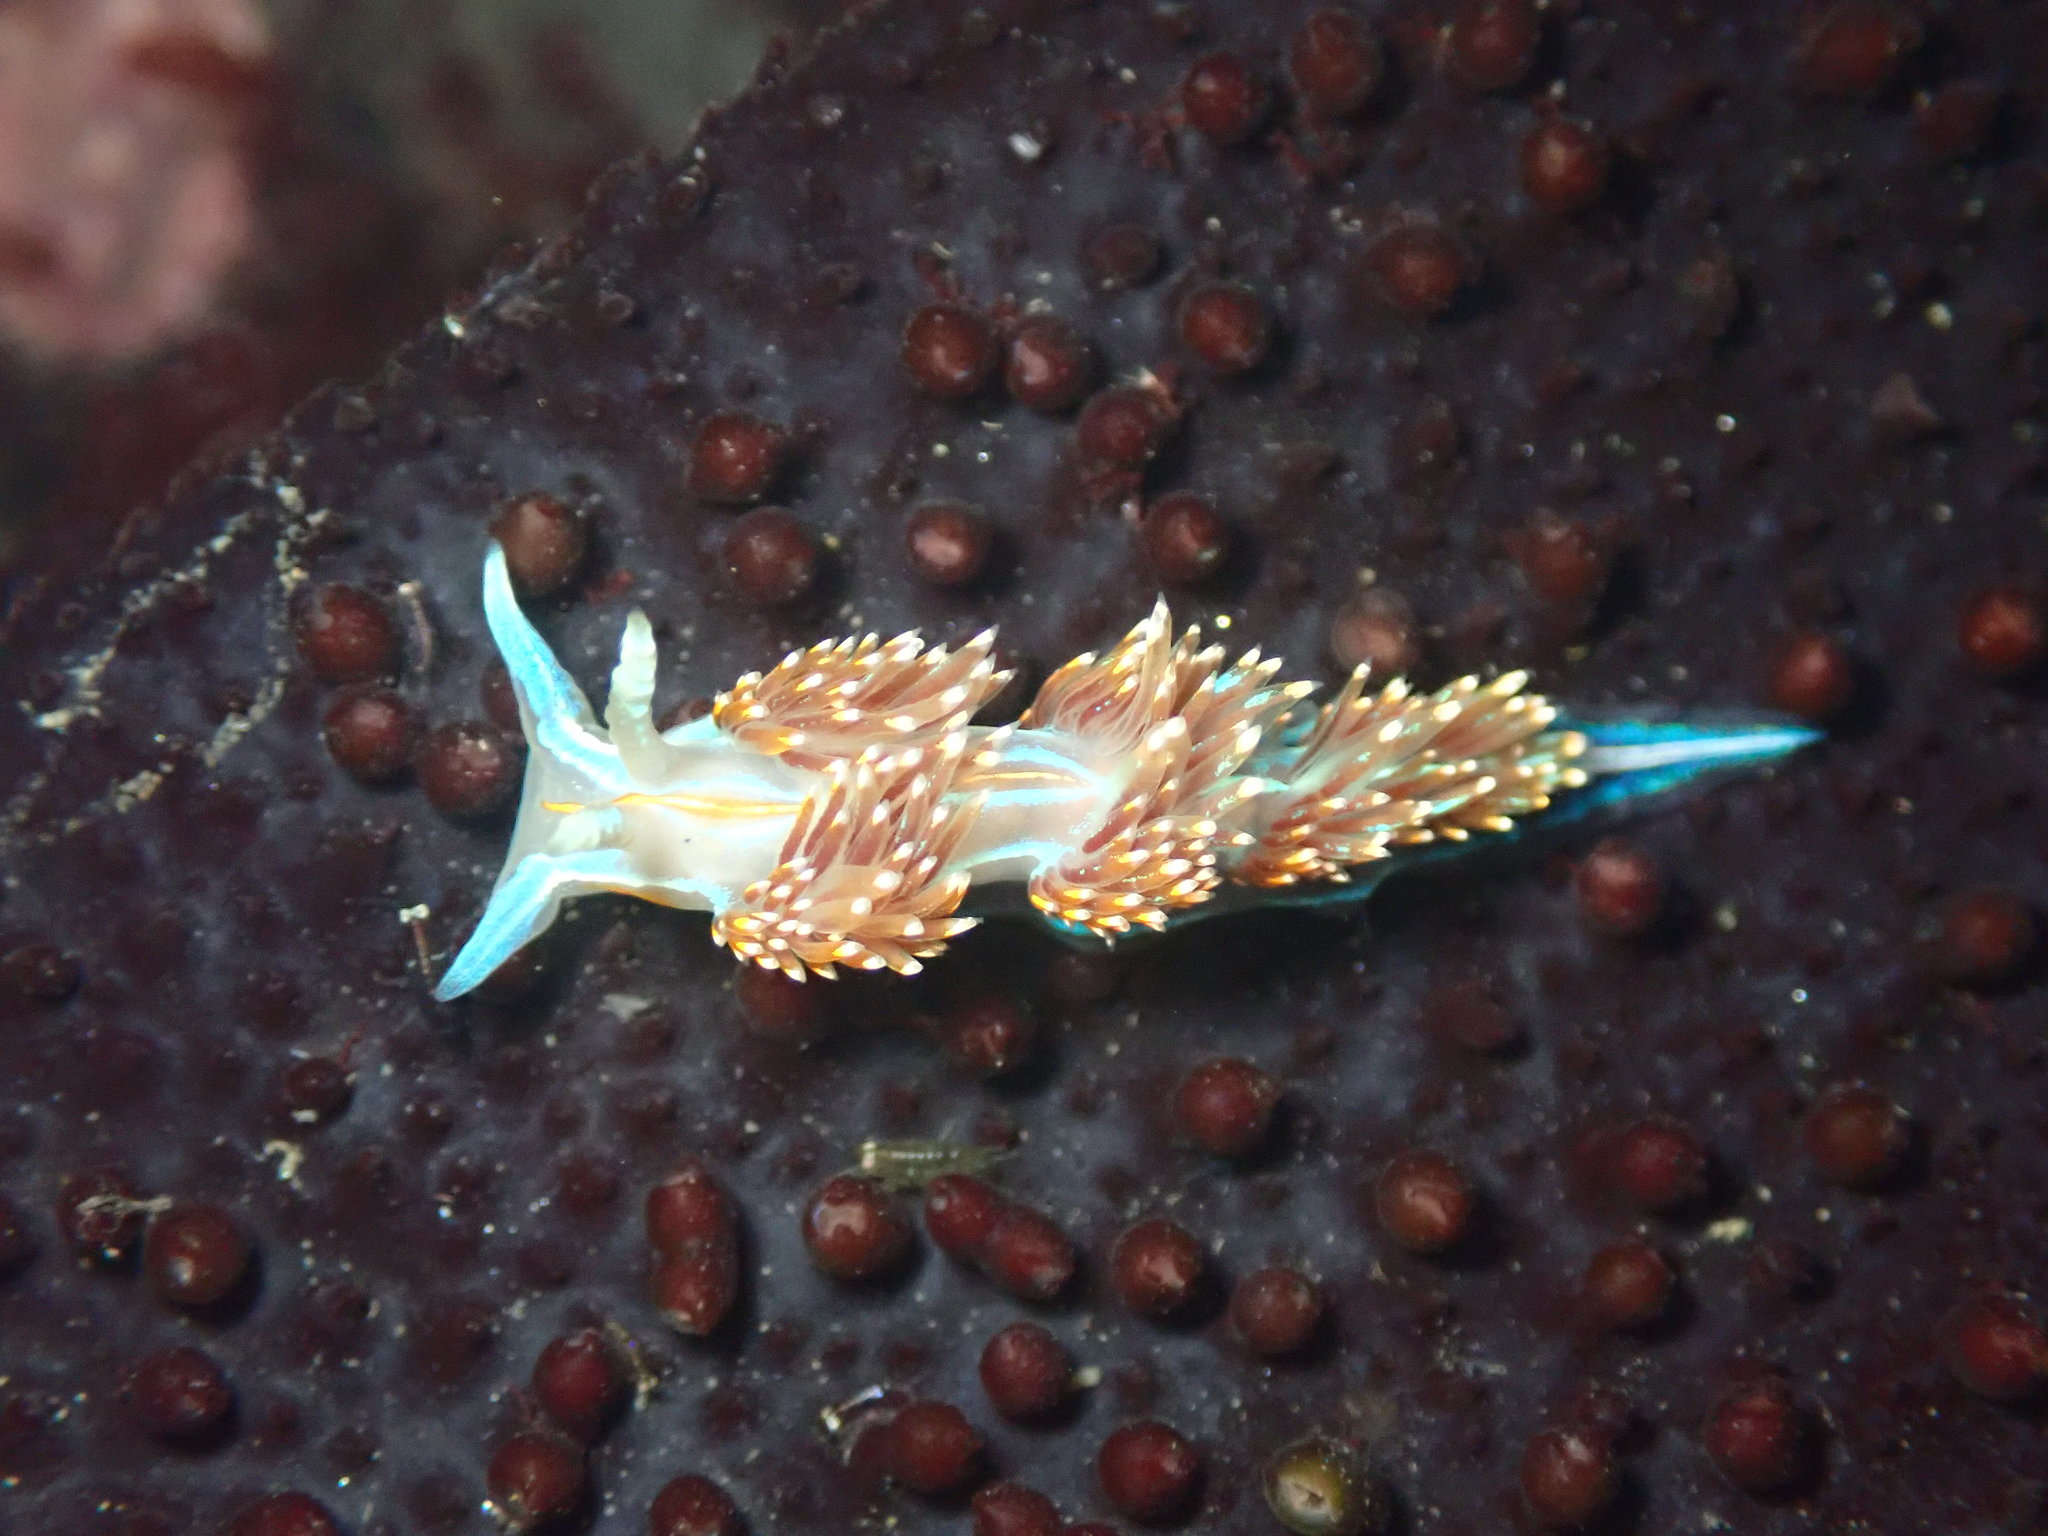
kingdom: Animalia
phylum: Mollusca
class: Gastropoda
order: Nudibranchia
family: Myrrhinidae
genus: Hermissenda
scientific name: Hermissenda opalescens
